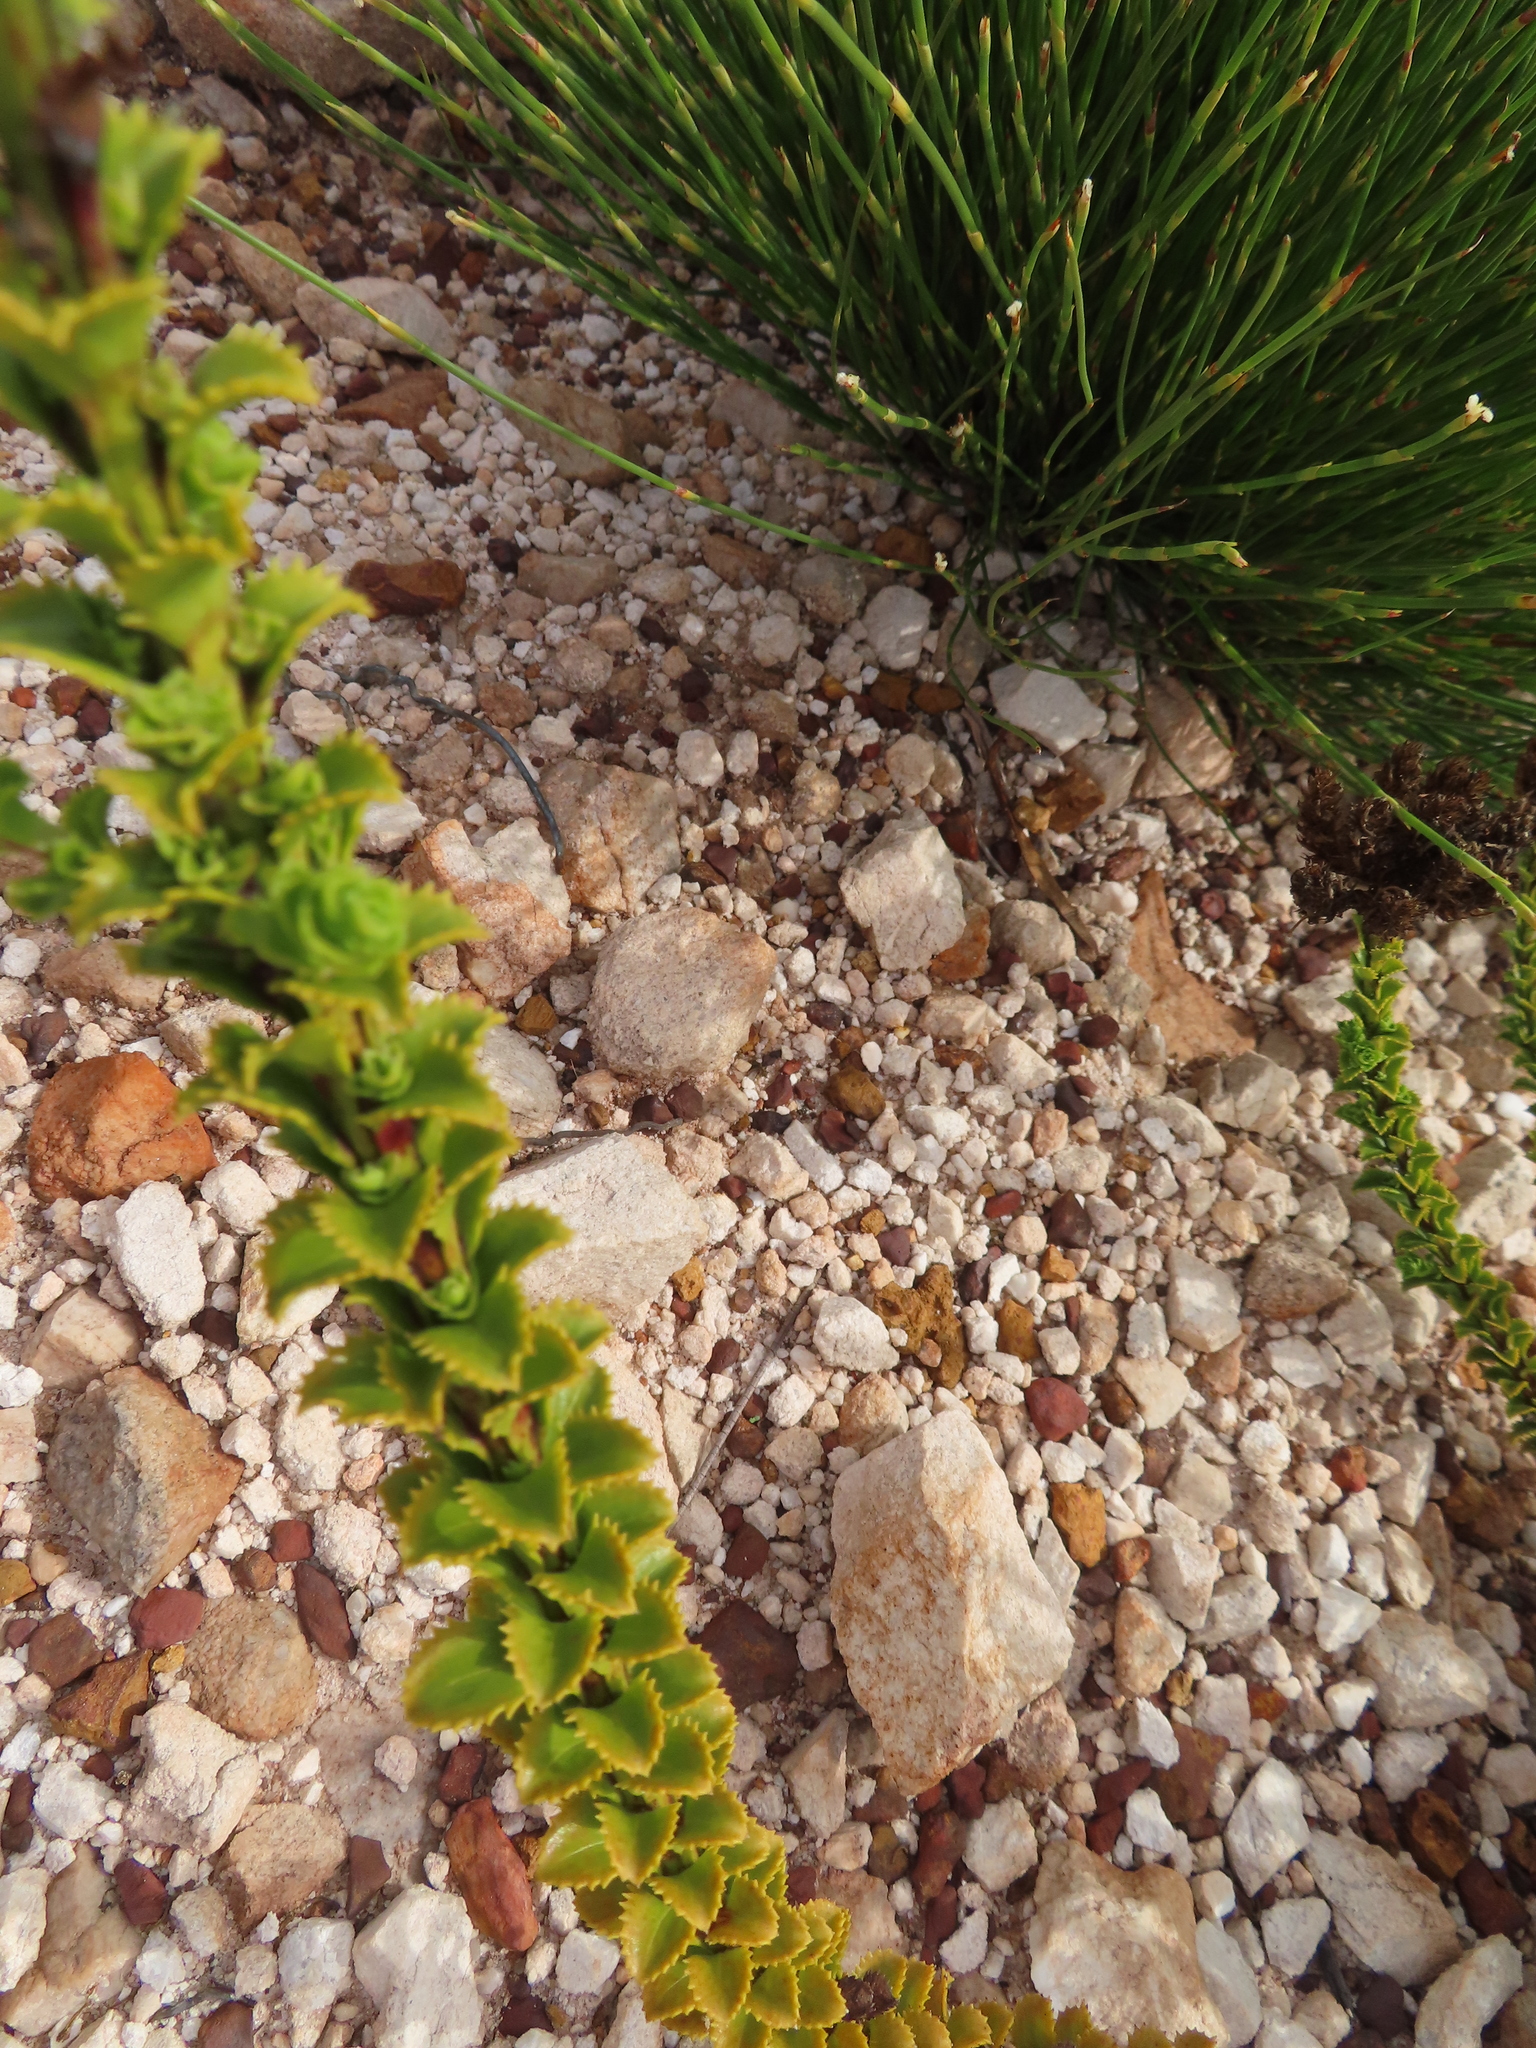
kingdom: Plantae
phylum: Tracheophyta
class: Magnoliopsida
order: Lamiales
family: Scrophulariaceae
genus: Pseudoselago
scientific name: Pseudoselago serrata
